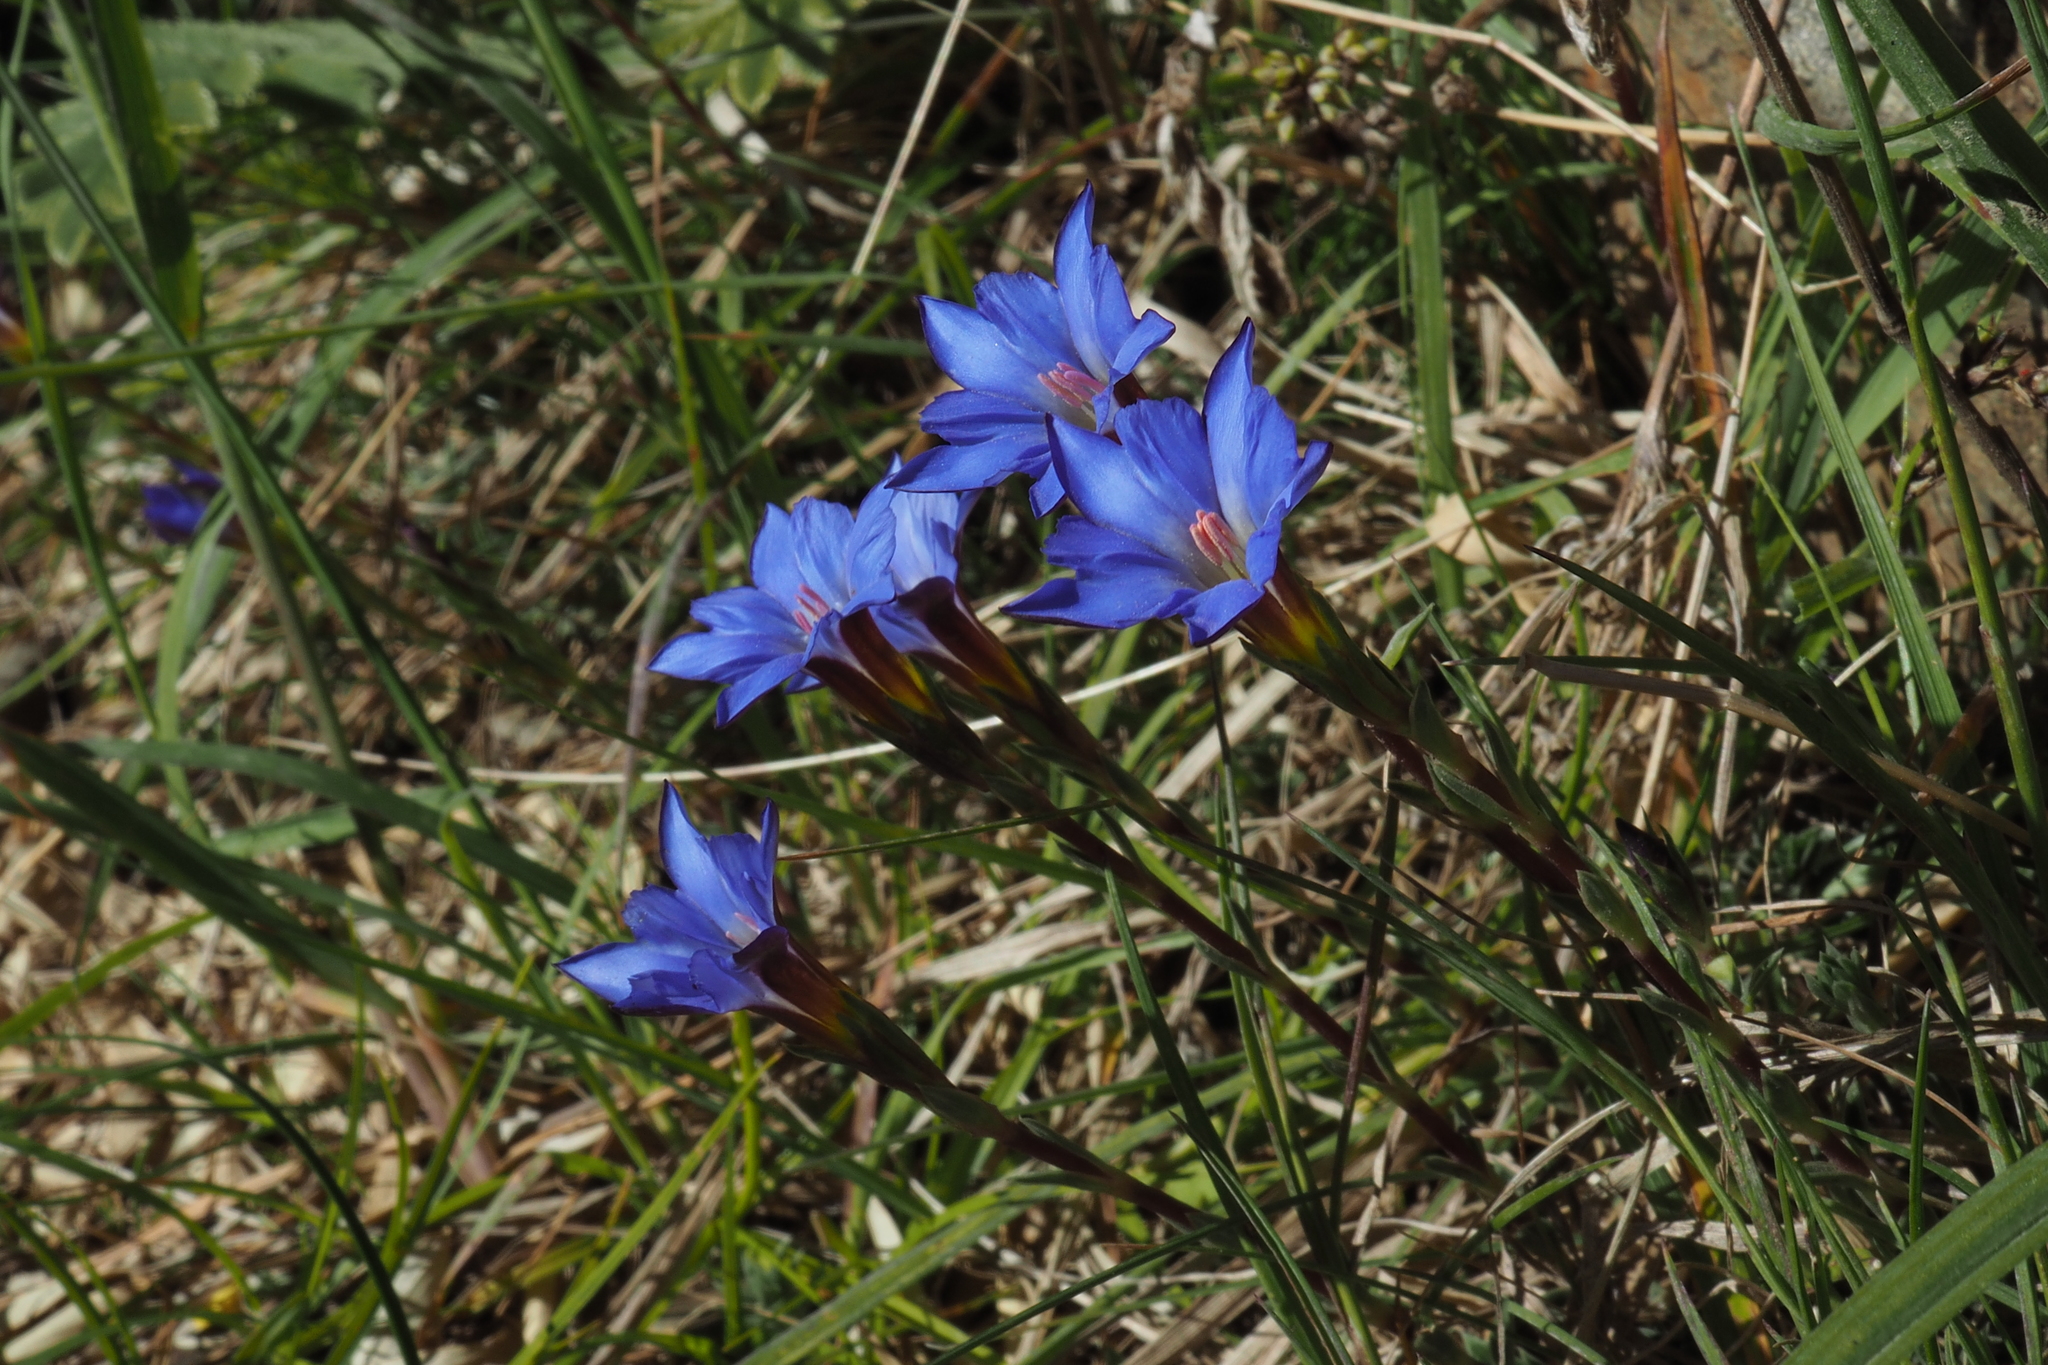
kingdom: Plantae
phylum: Tracheophyta
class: Magnoliopsida
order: Gentianales
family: Gentianaceae
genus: Gentiana
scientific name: Gentiana arisanensis
